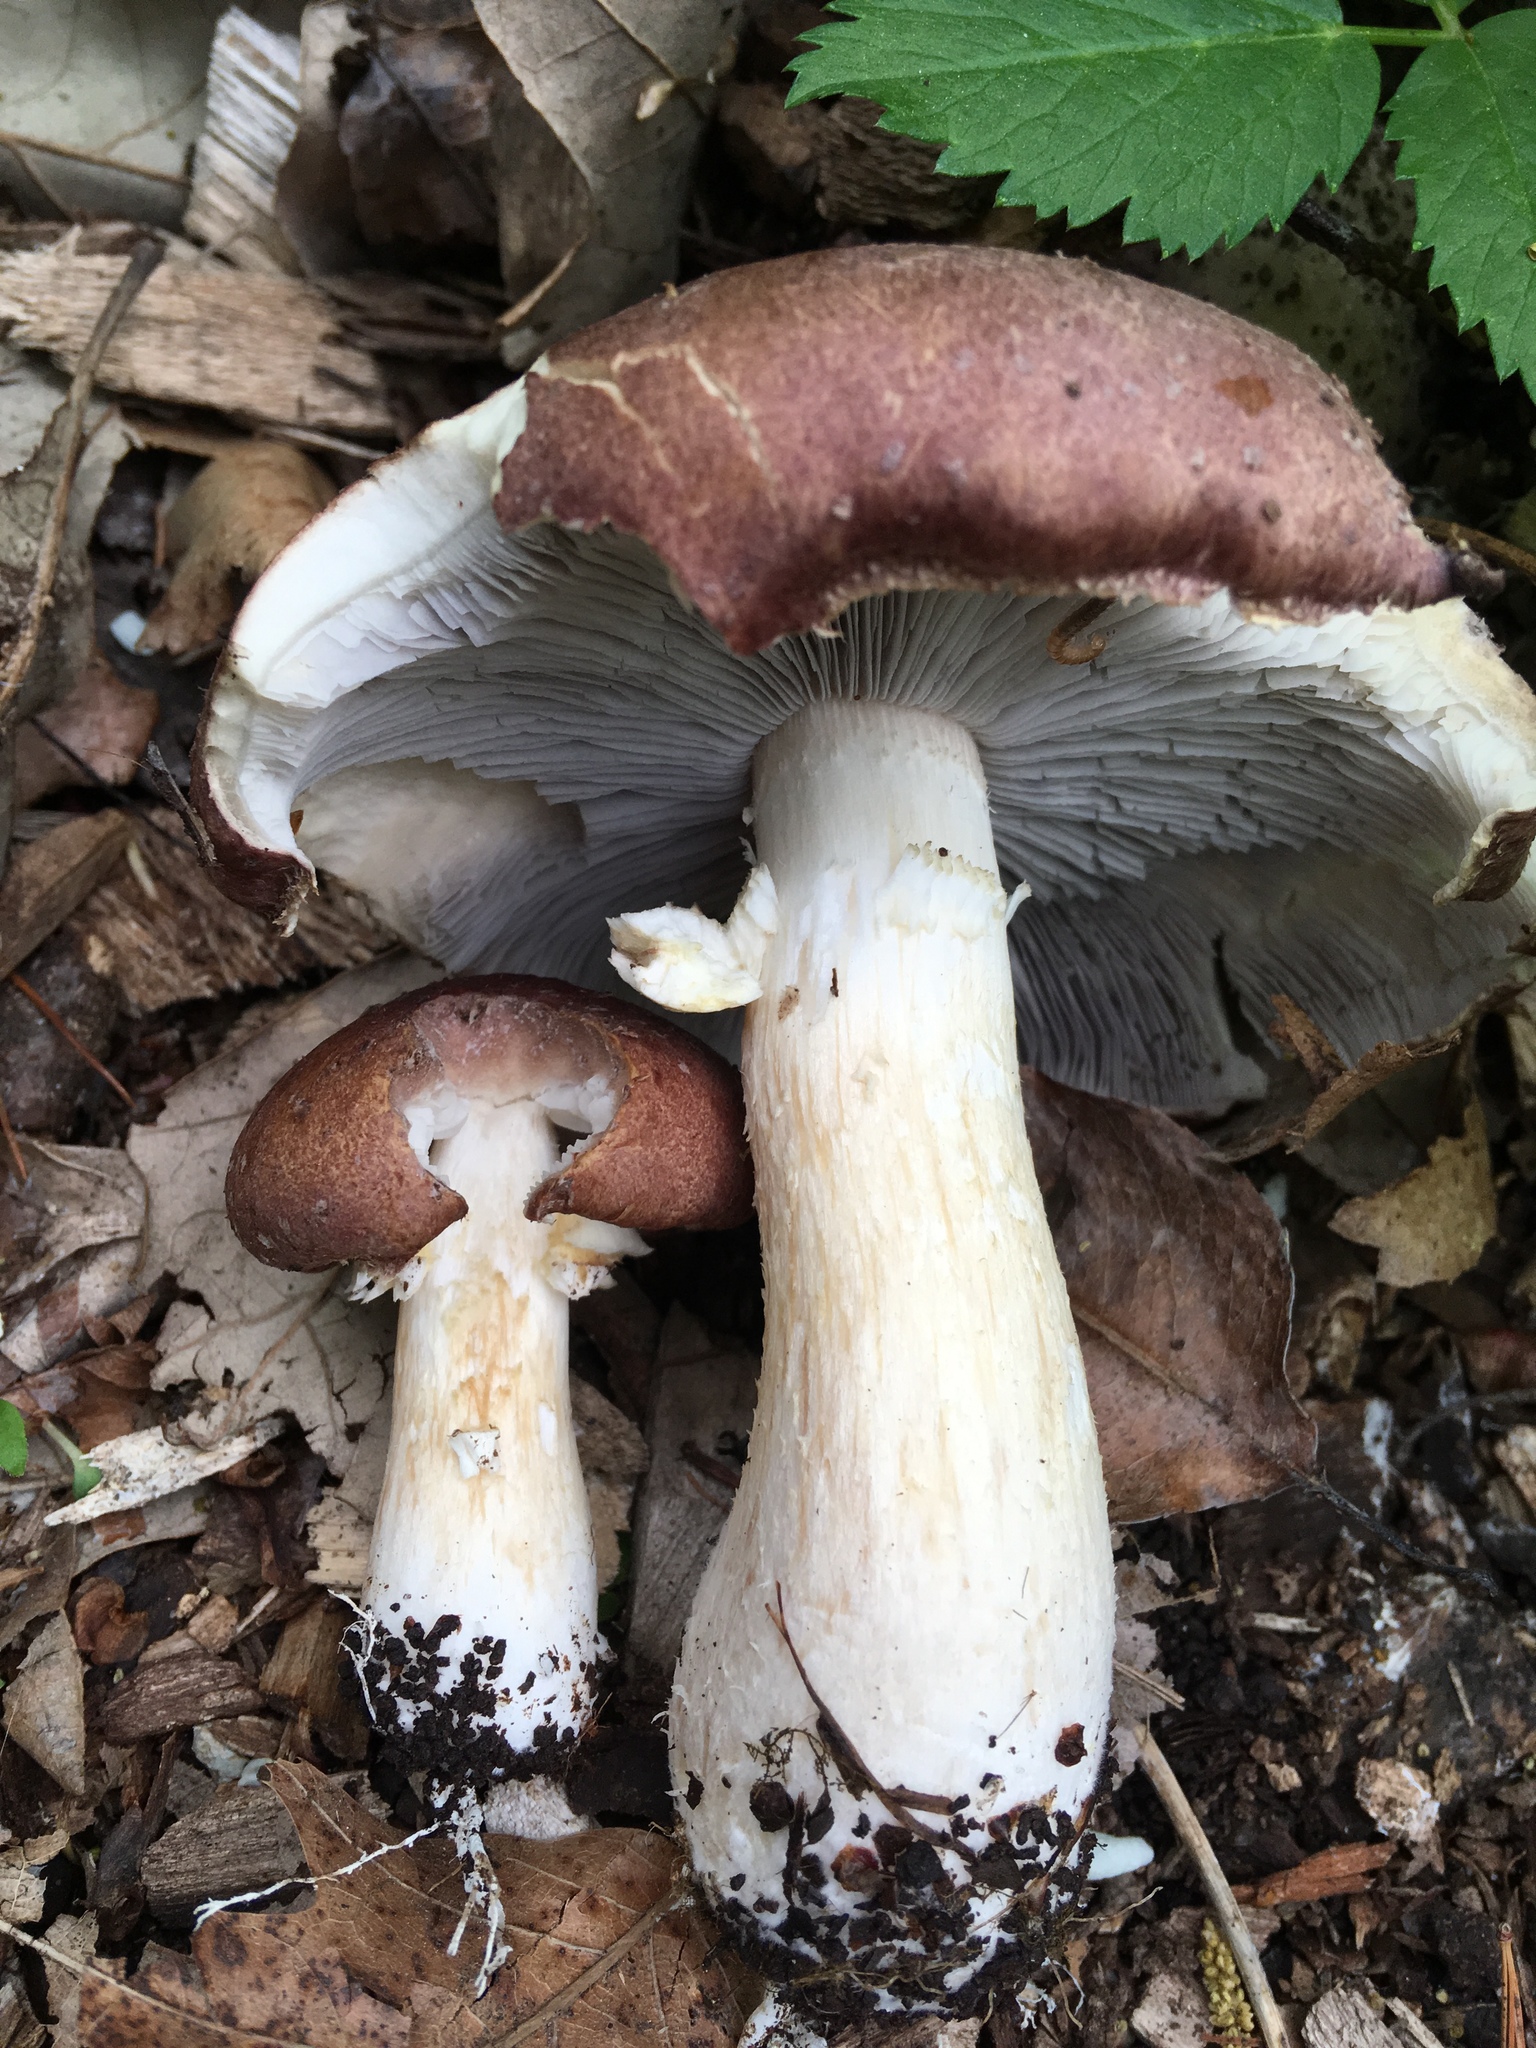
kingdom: Fungi
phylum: Basidiomycota
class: Agaricomycetes
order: Agaricales
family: Strophariaceae
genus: Stropharia
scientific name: Stropharia rugosoannulata
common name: Wine roundhead
